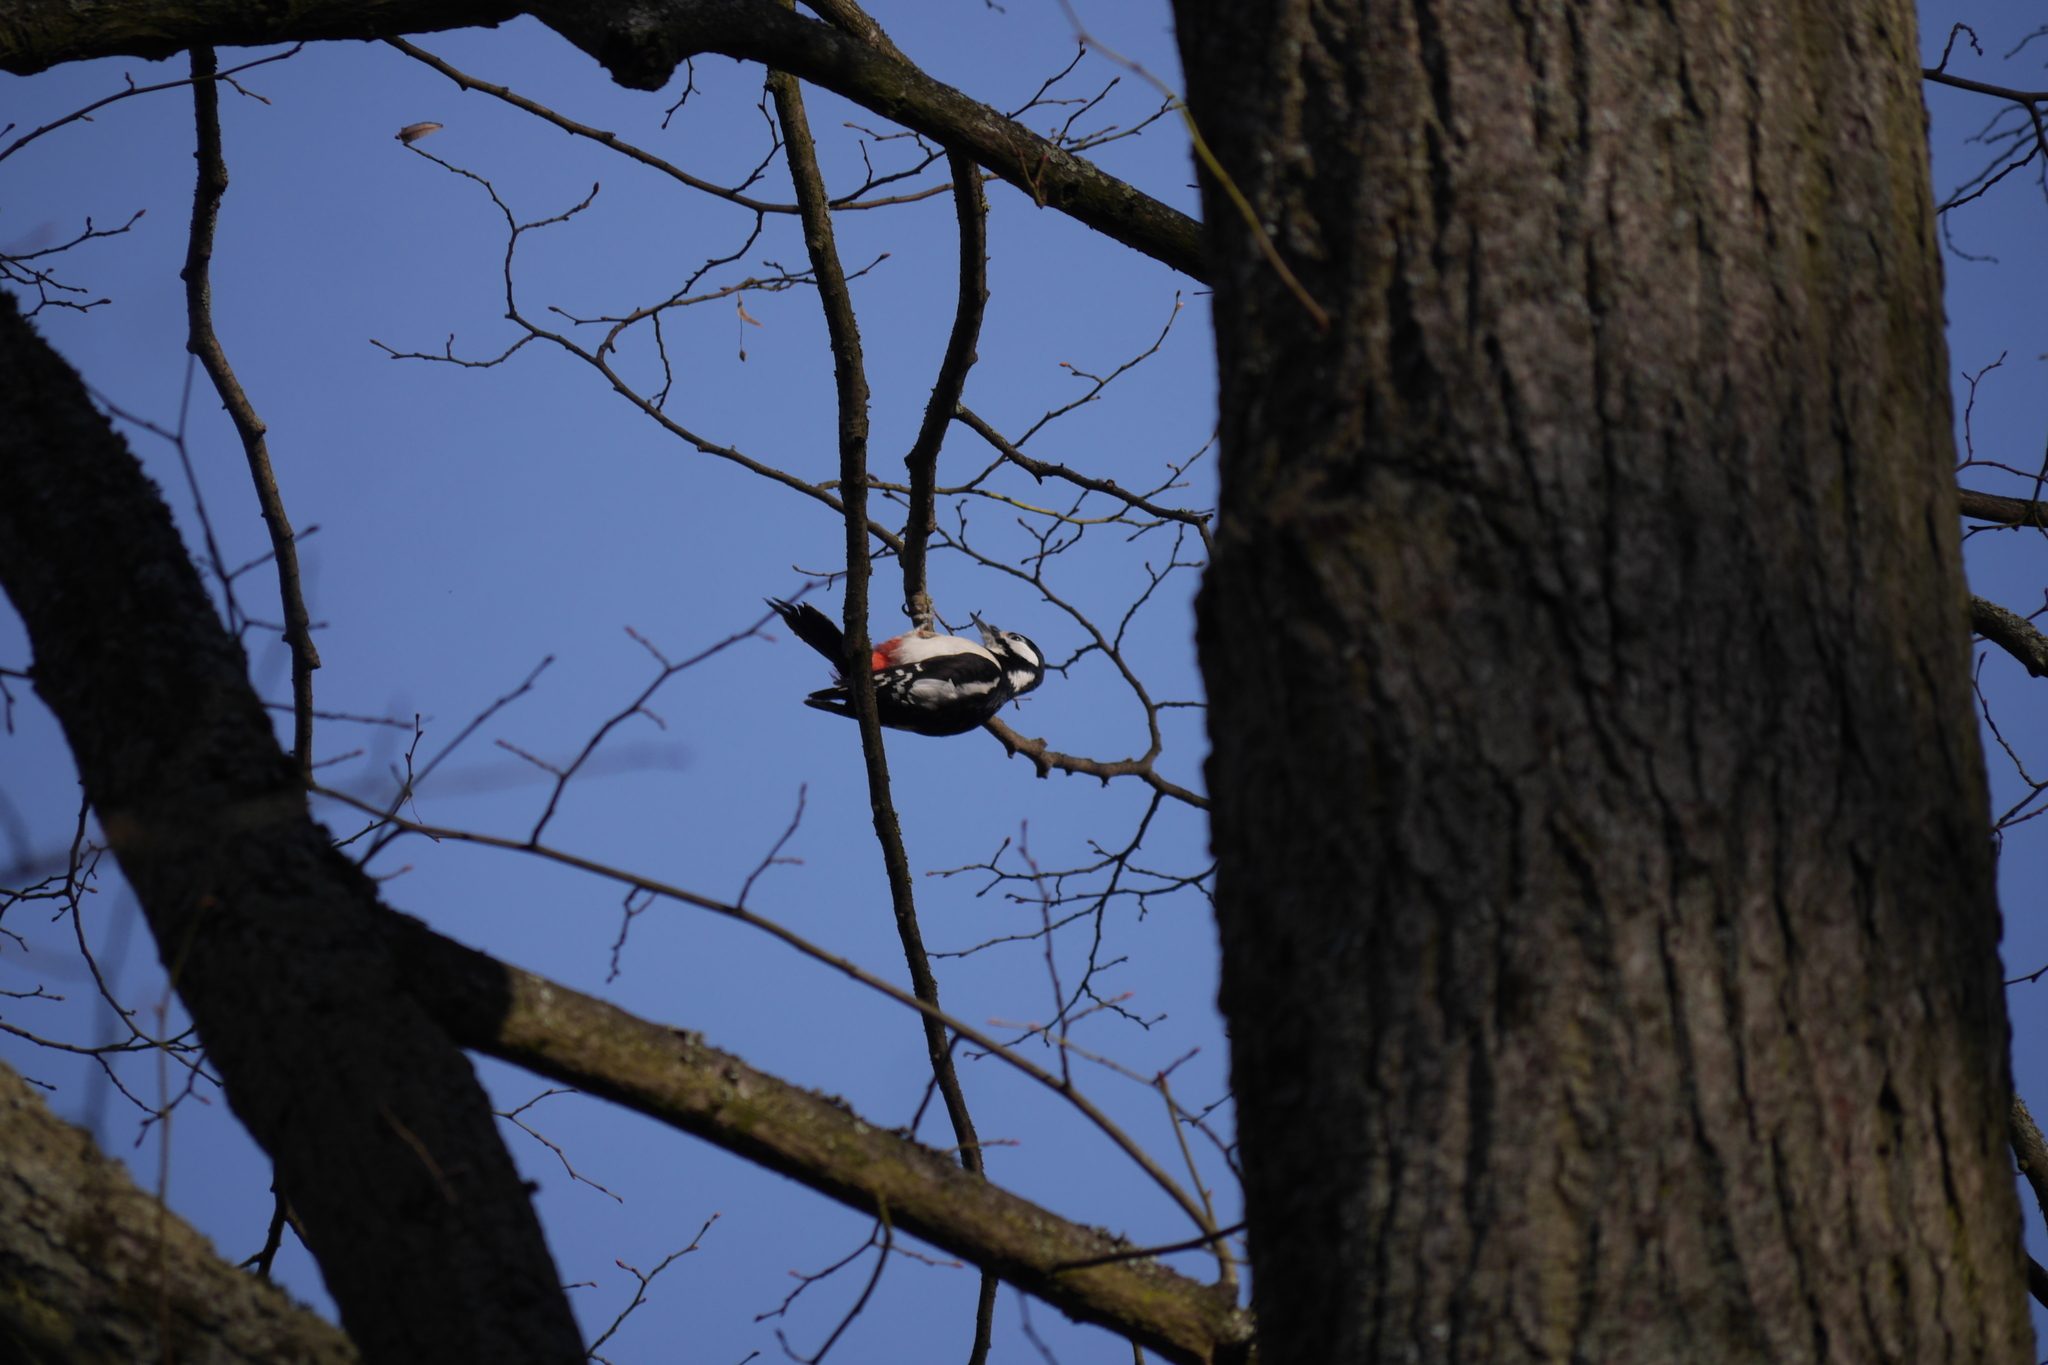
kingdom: Animalia
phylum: Chordata
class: Aves
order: Piciformes
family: Picidae
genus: Dendrocopos
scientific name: Dendrocopos major
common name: Great spotted woodpecker
